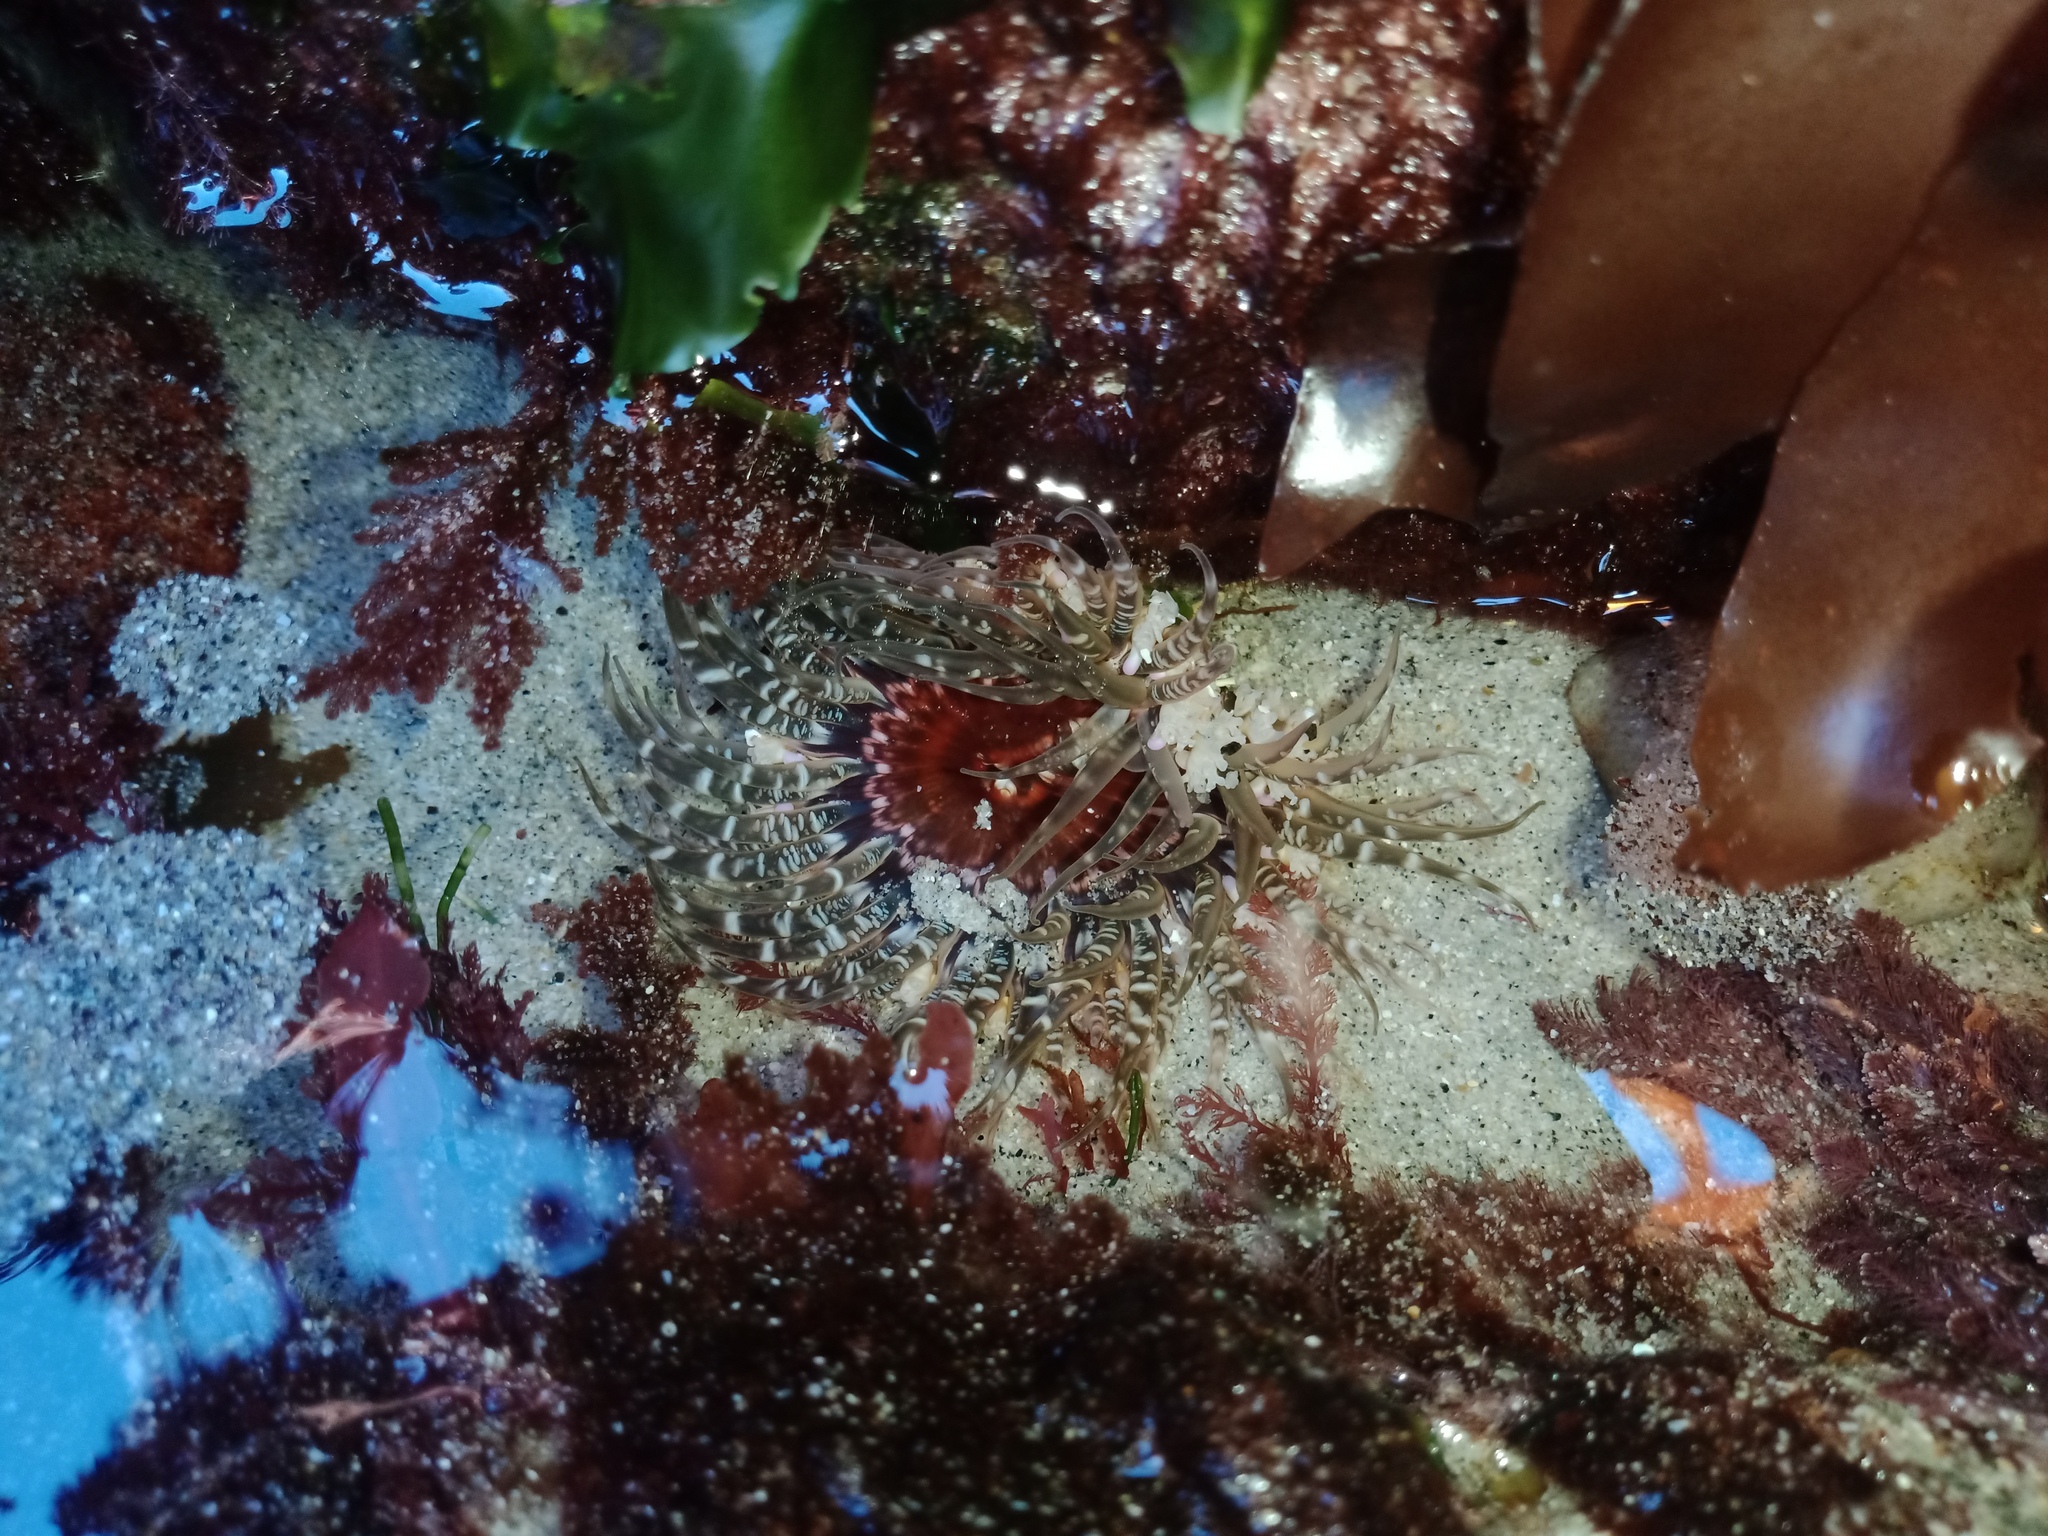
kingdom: Animalia
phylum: Cnidaria
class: Anthozoa
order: Actiniaria
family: Actiniidae
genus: Oulactis
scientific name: Oulactis muscosa
